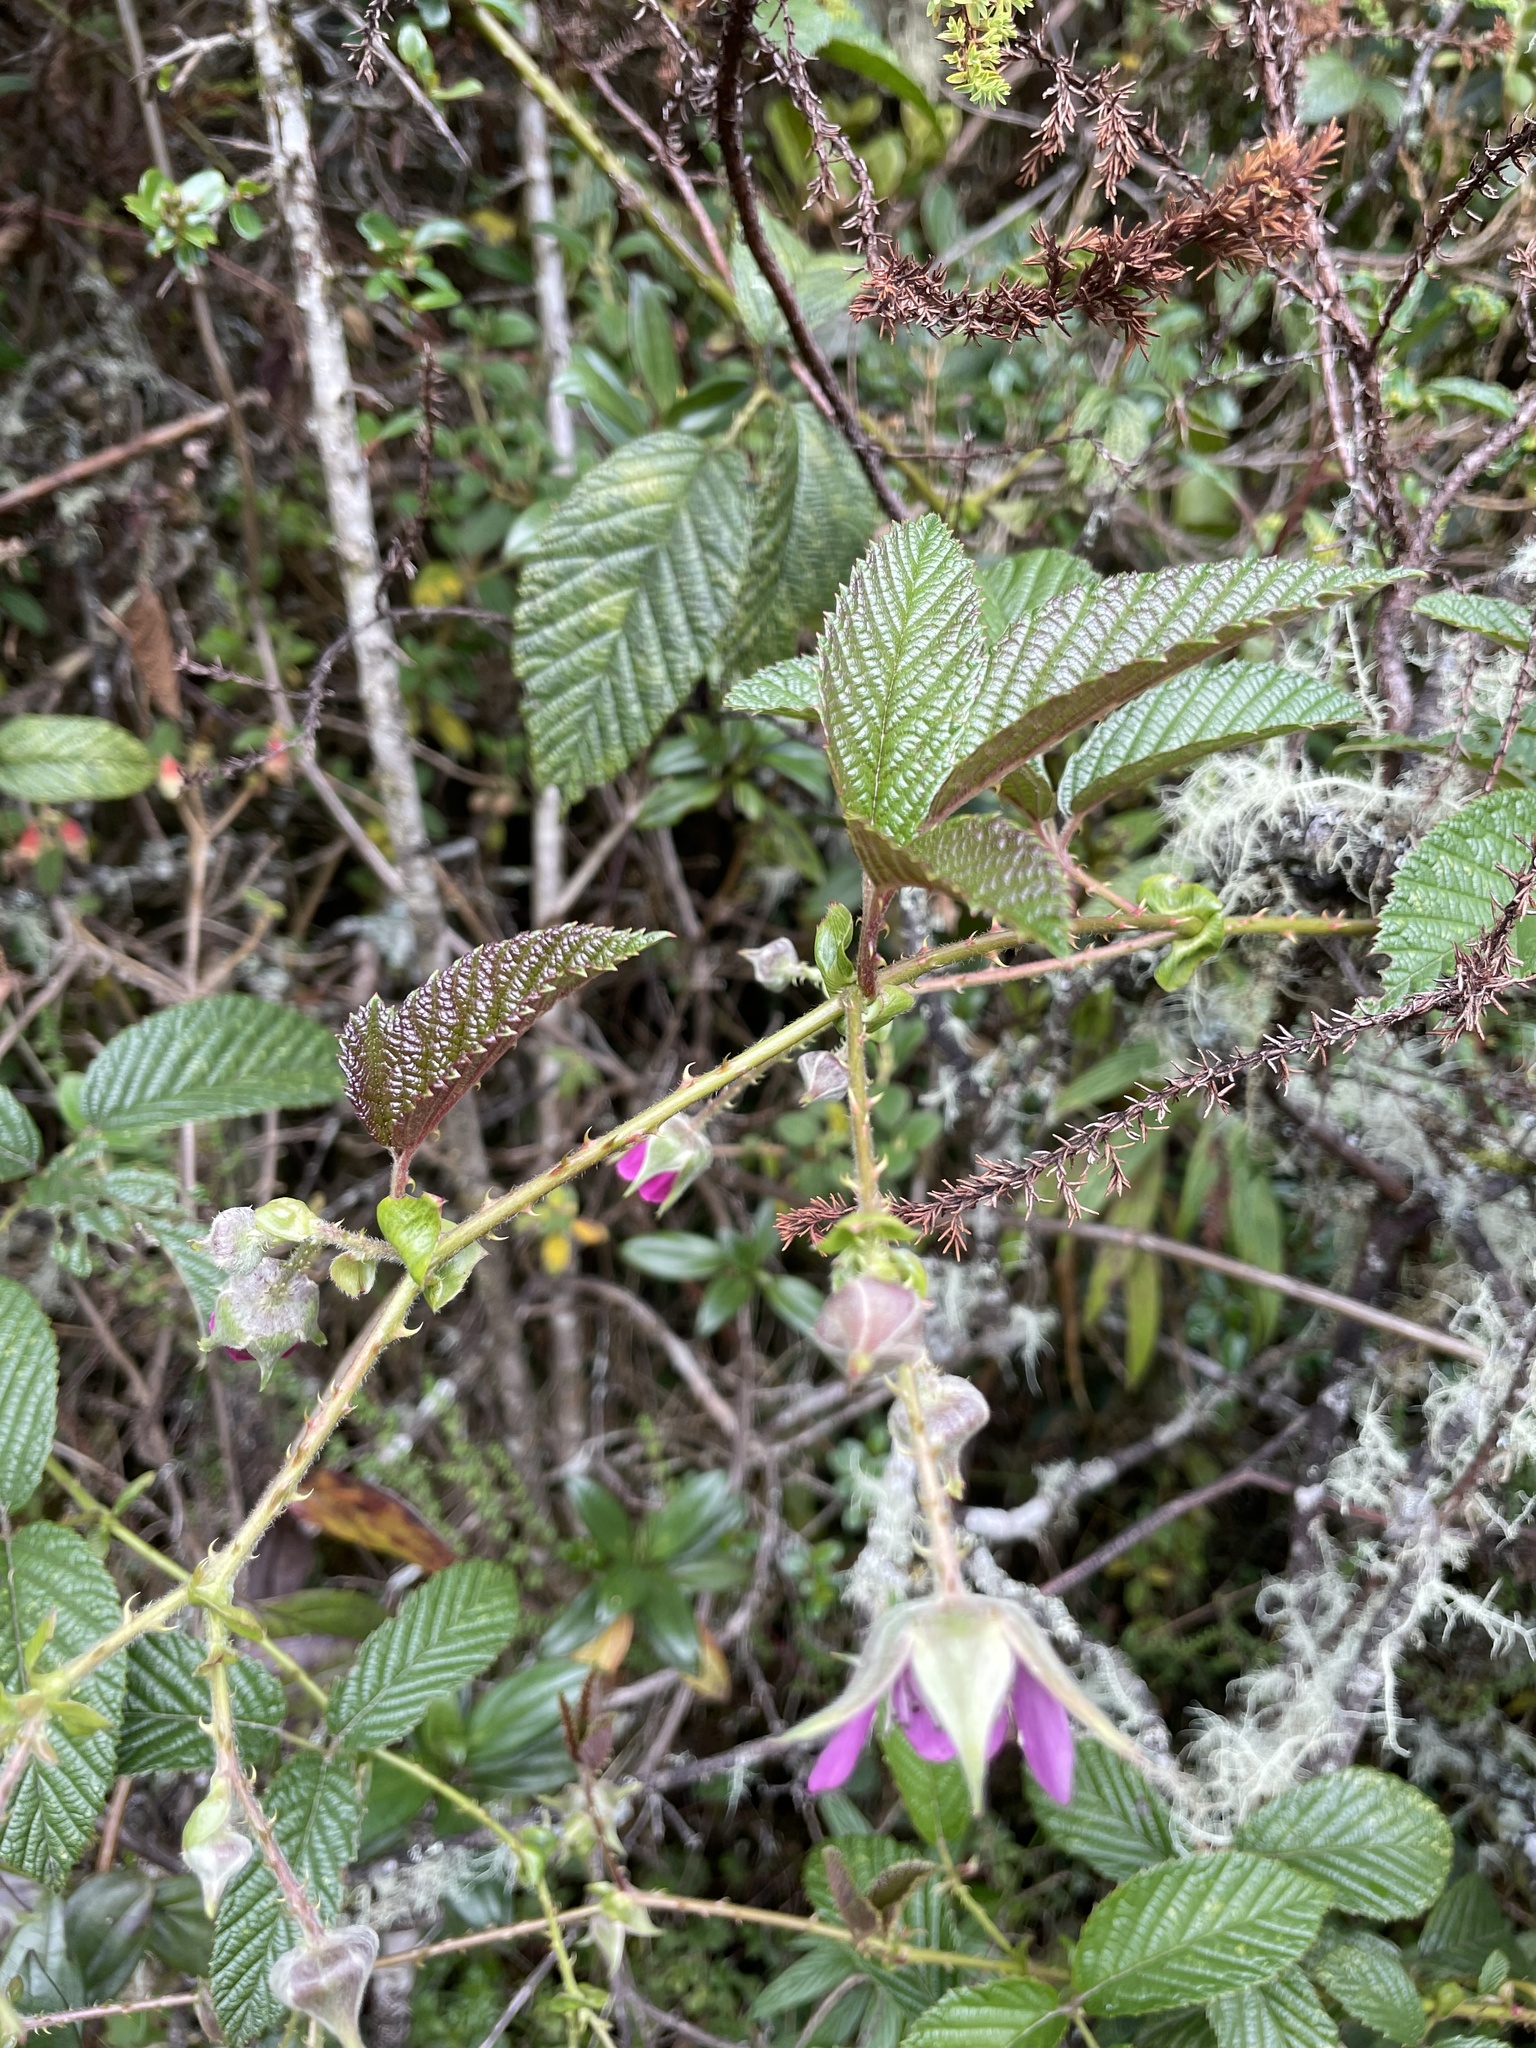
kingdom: Plantae
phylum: Tracheophyta
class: Magnoliopsida
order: Rosales
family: Rosaceae
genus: Rubus
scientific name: Rubus roseus
